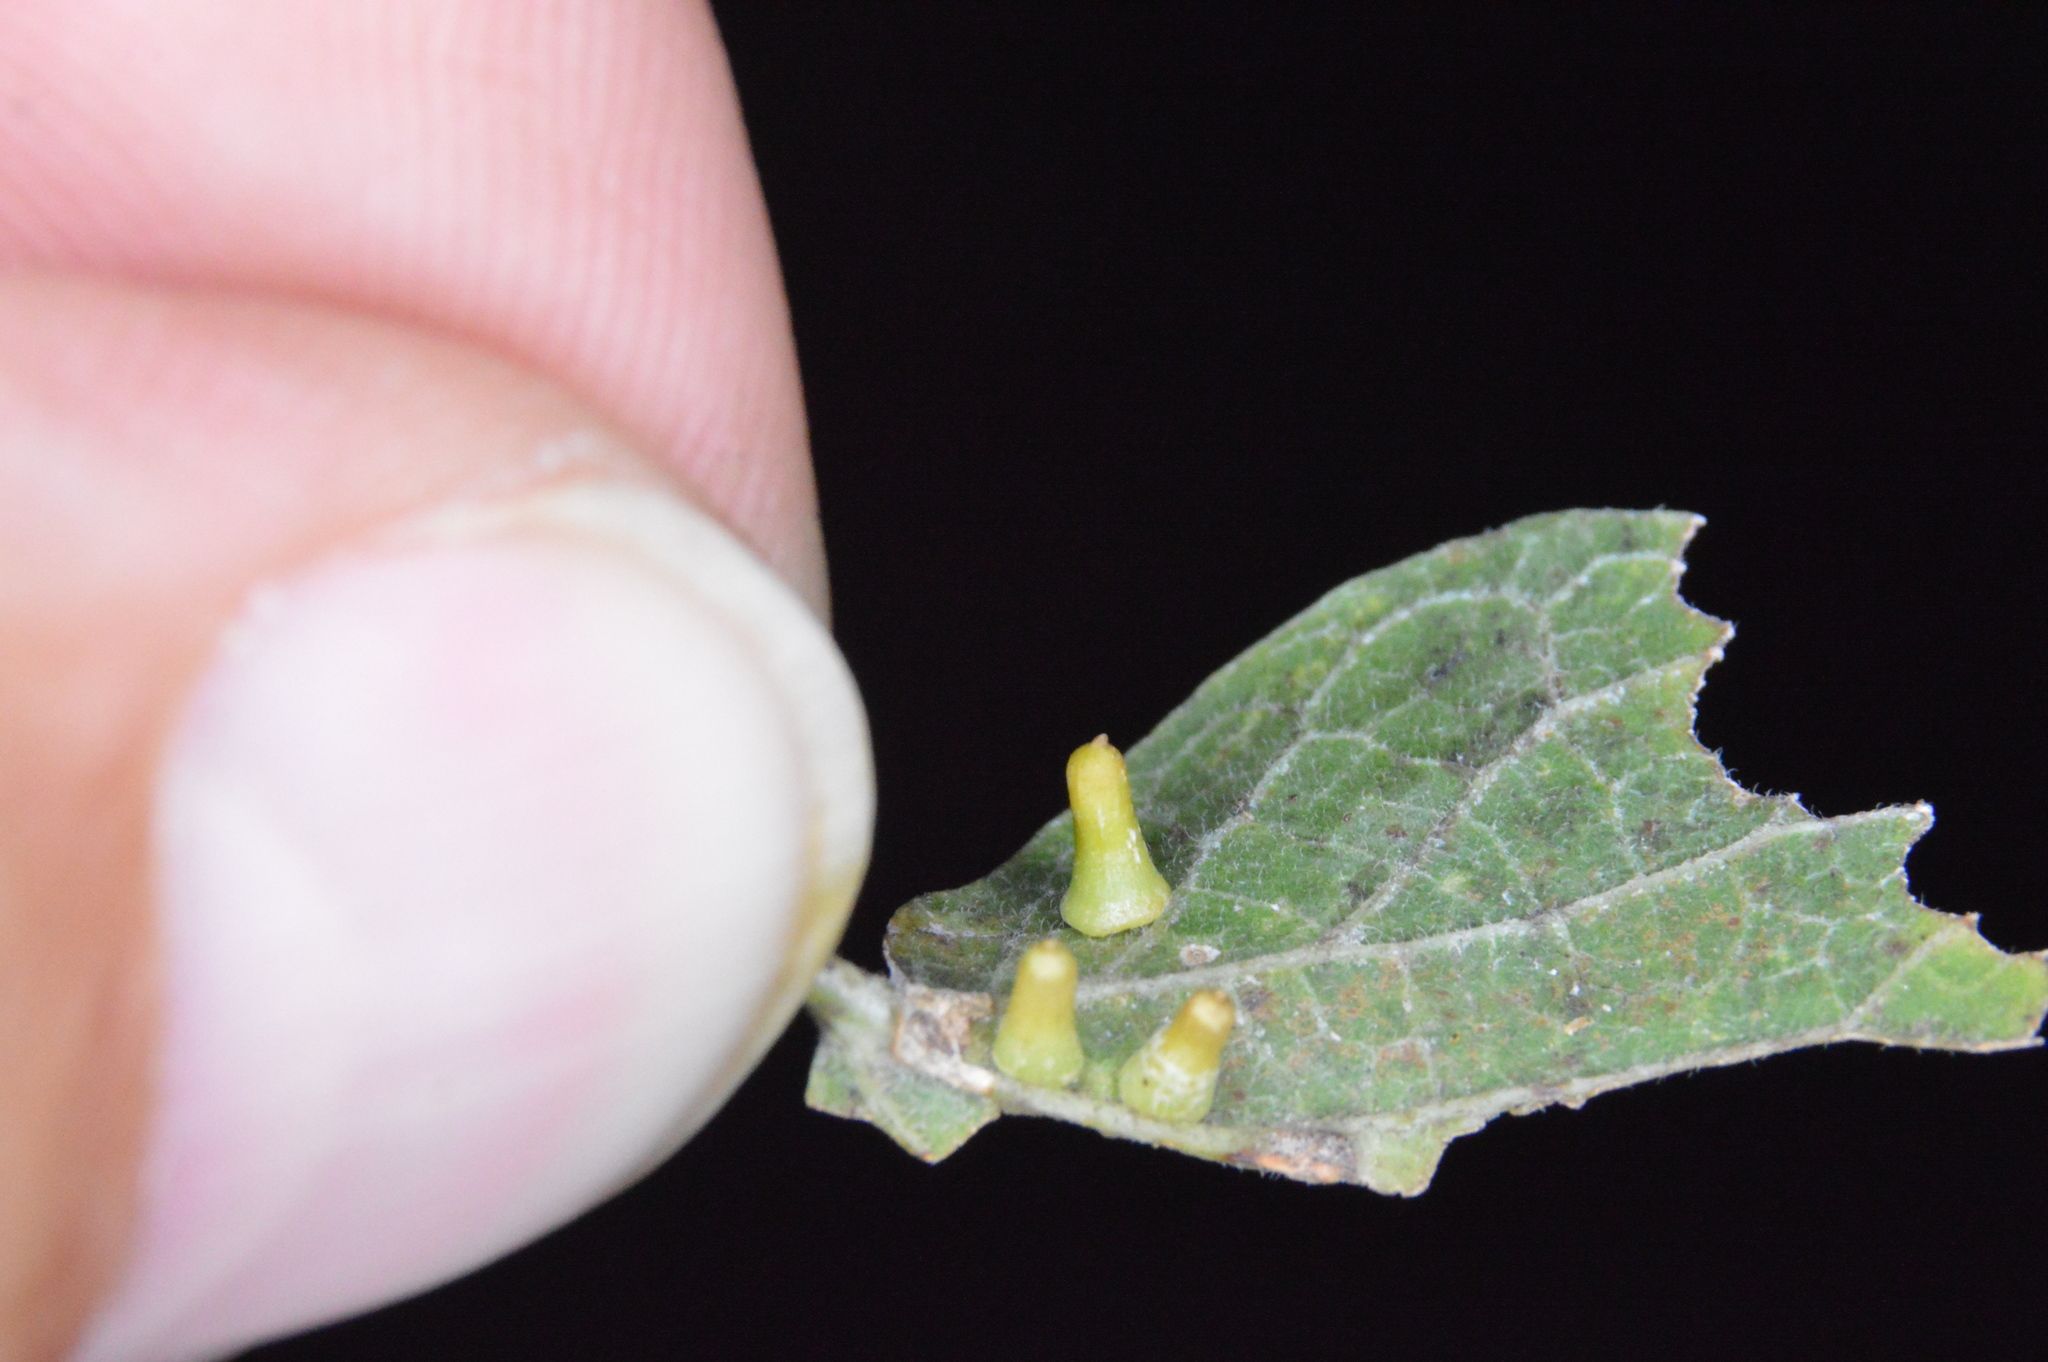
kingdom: Animalia
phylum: Arthropoda
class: Insecta
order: Diptera
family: Cecidomyiidae
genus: Celticecis
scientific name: Celticecis aciculata
